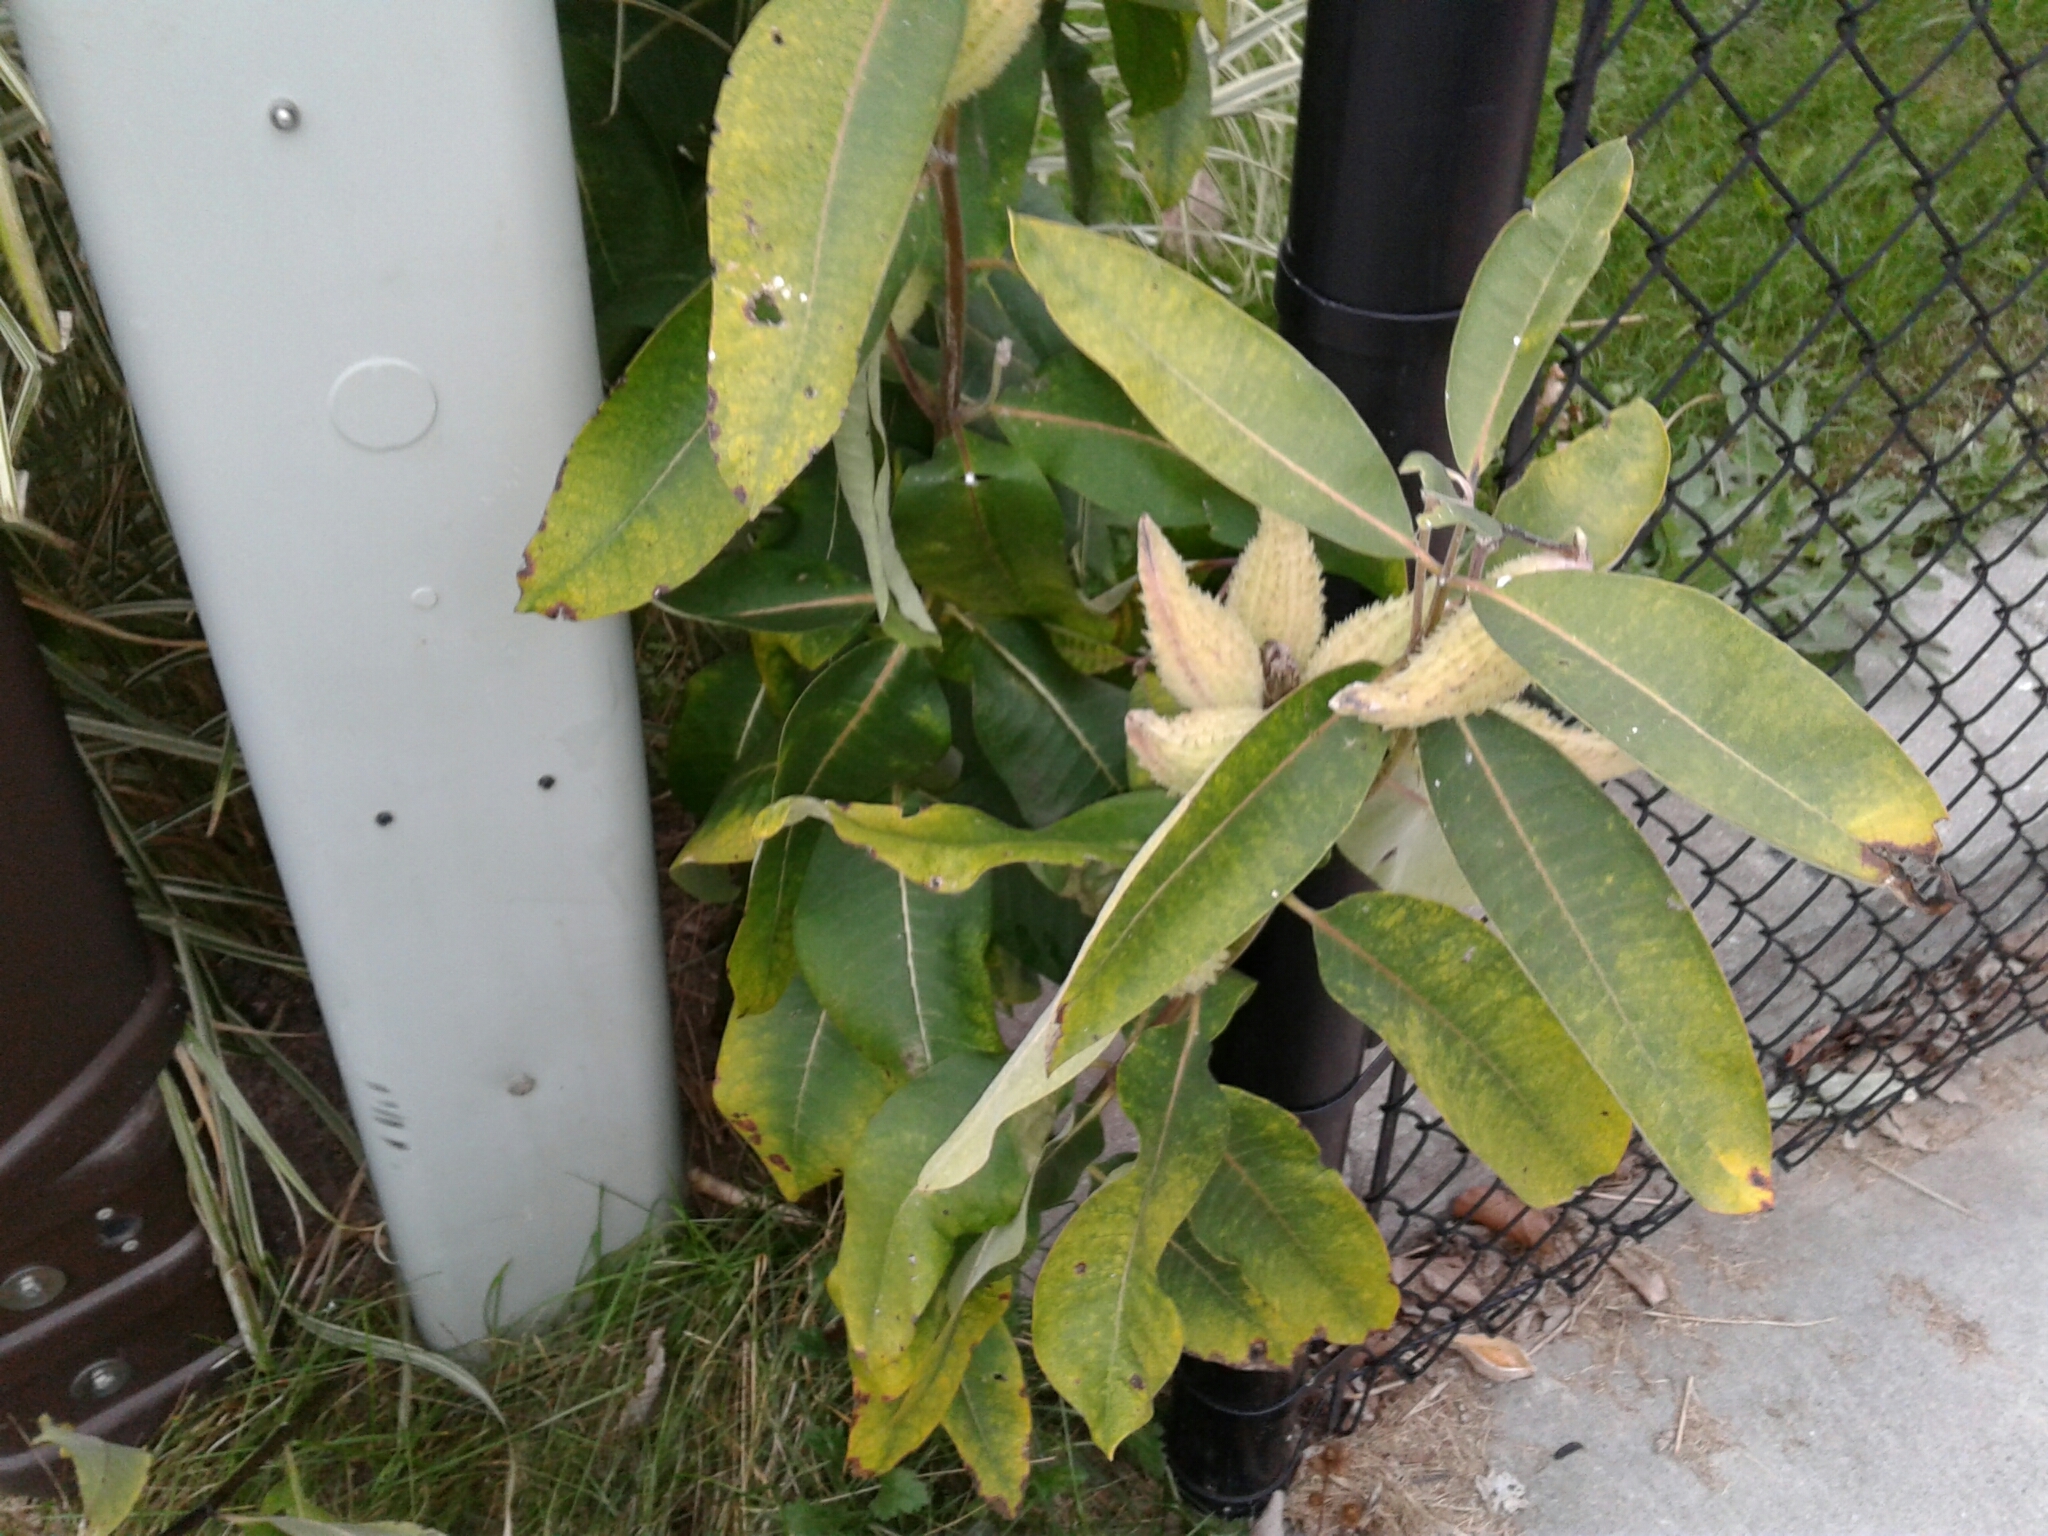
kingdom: Plantae
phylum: Tracheophyta
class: Magnoliopsida
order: Gentianales
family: Apocynaceae
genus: Asclepias
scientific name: Asclepias syriaca
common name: Common milkweed
